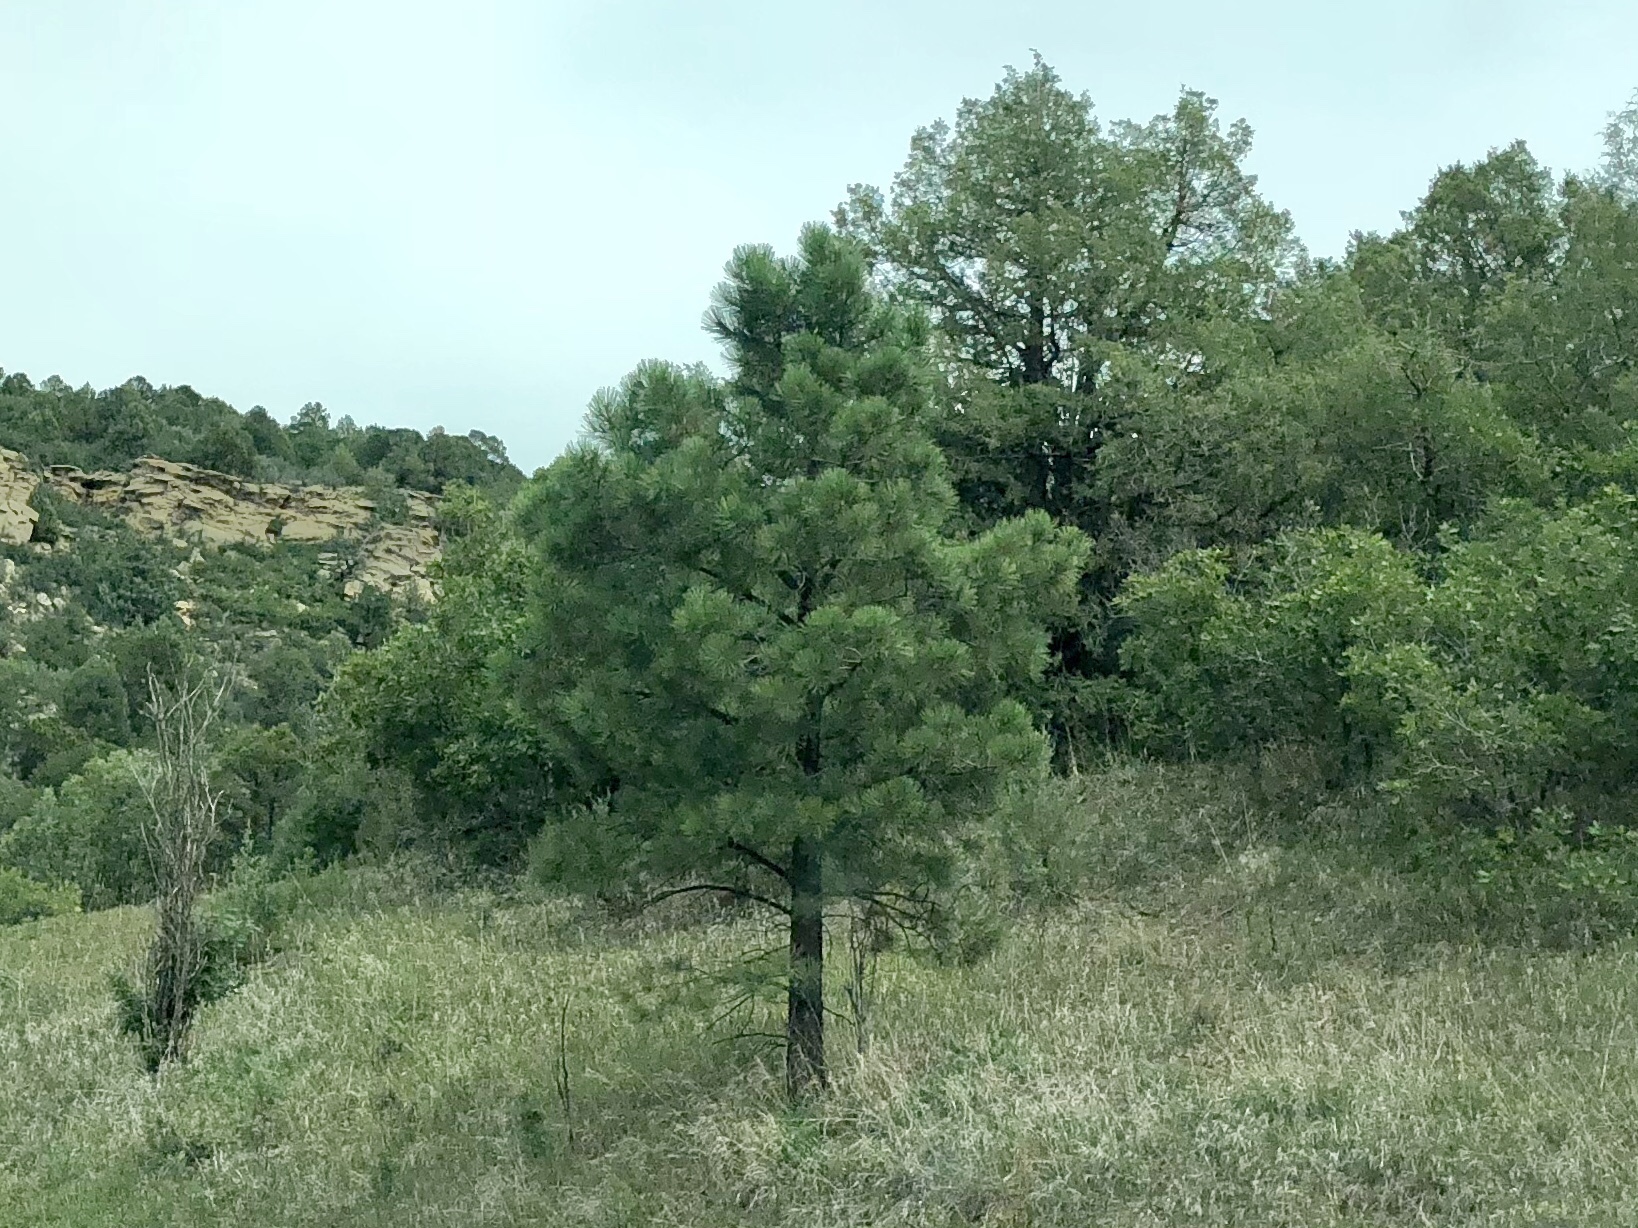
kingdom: Plantae
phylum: Tracheophyta
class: Pinopsida
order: Pinales
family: Pinaceae
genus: Pinus
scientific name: Pinus ponderosa
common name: Western yellow-pine
